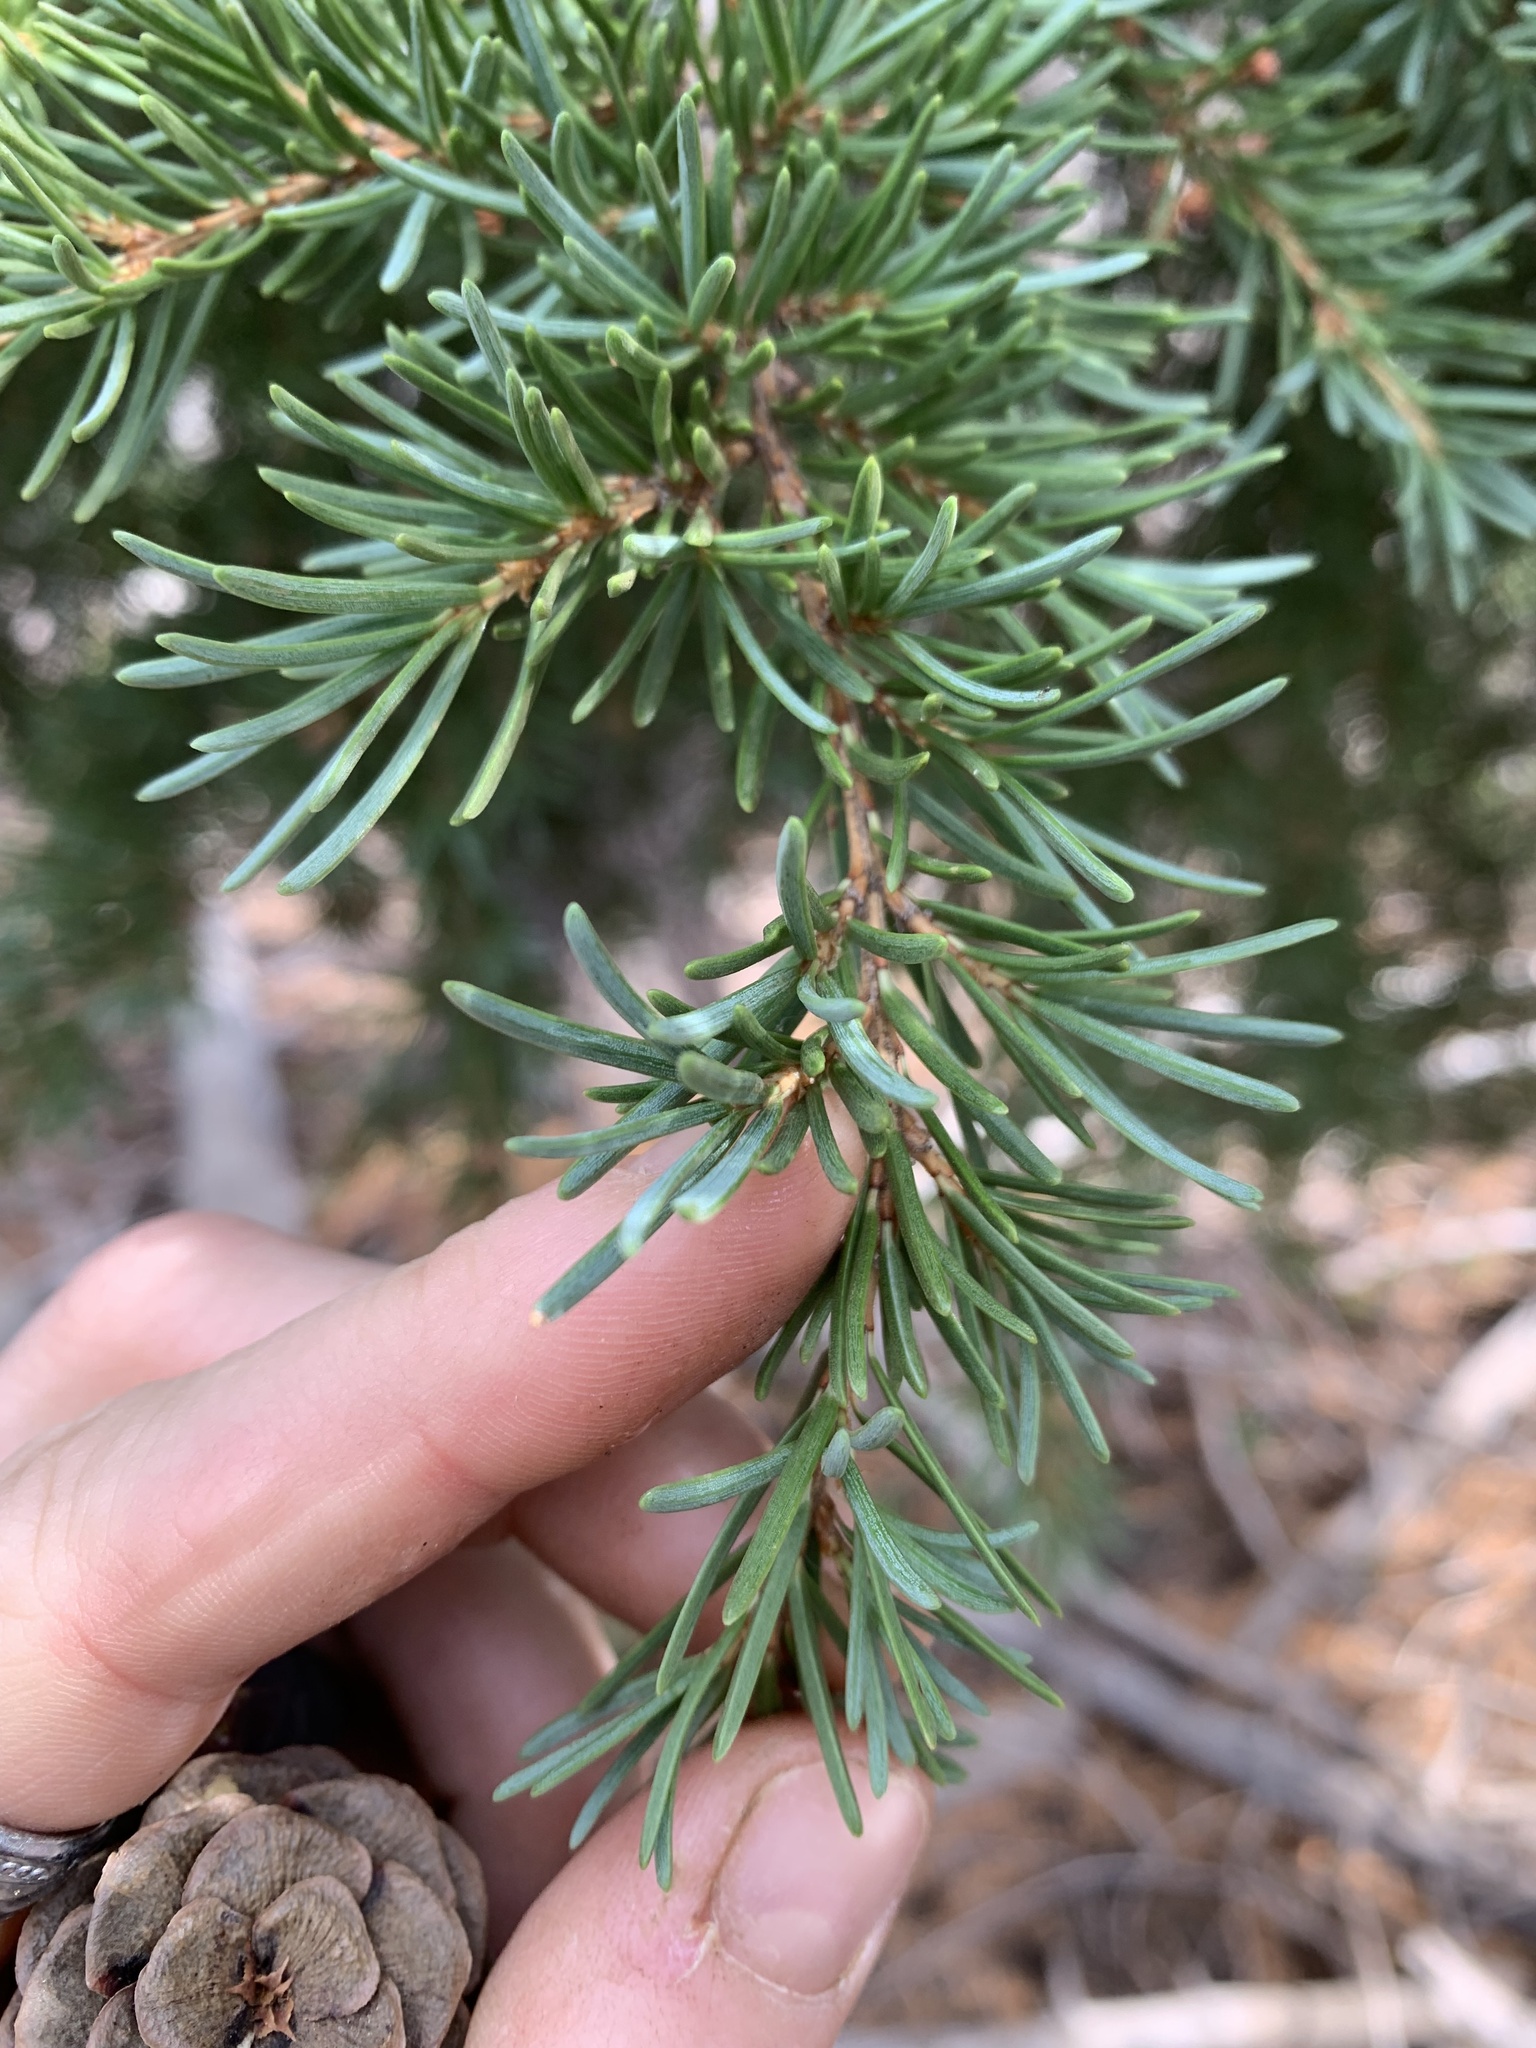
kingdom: Plantae
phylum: Tracheophyta
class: Pinopsida
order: Pinales
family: Pinaceae
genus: Tsuga
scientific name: Tsuga mertensiana
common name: Mountain hemlock
